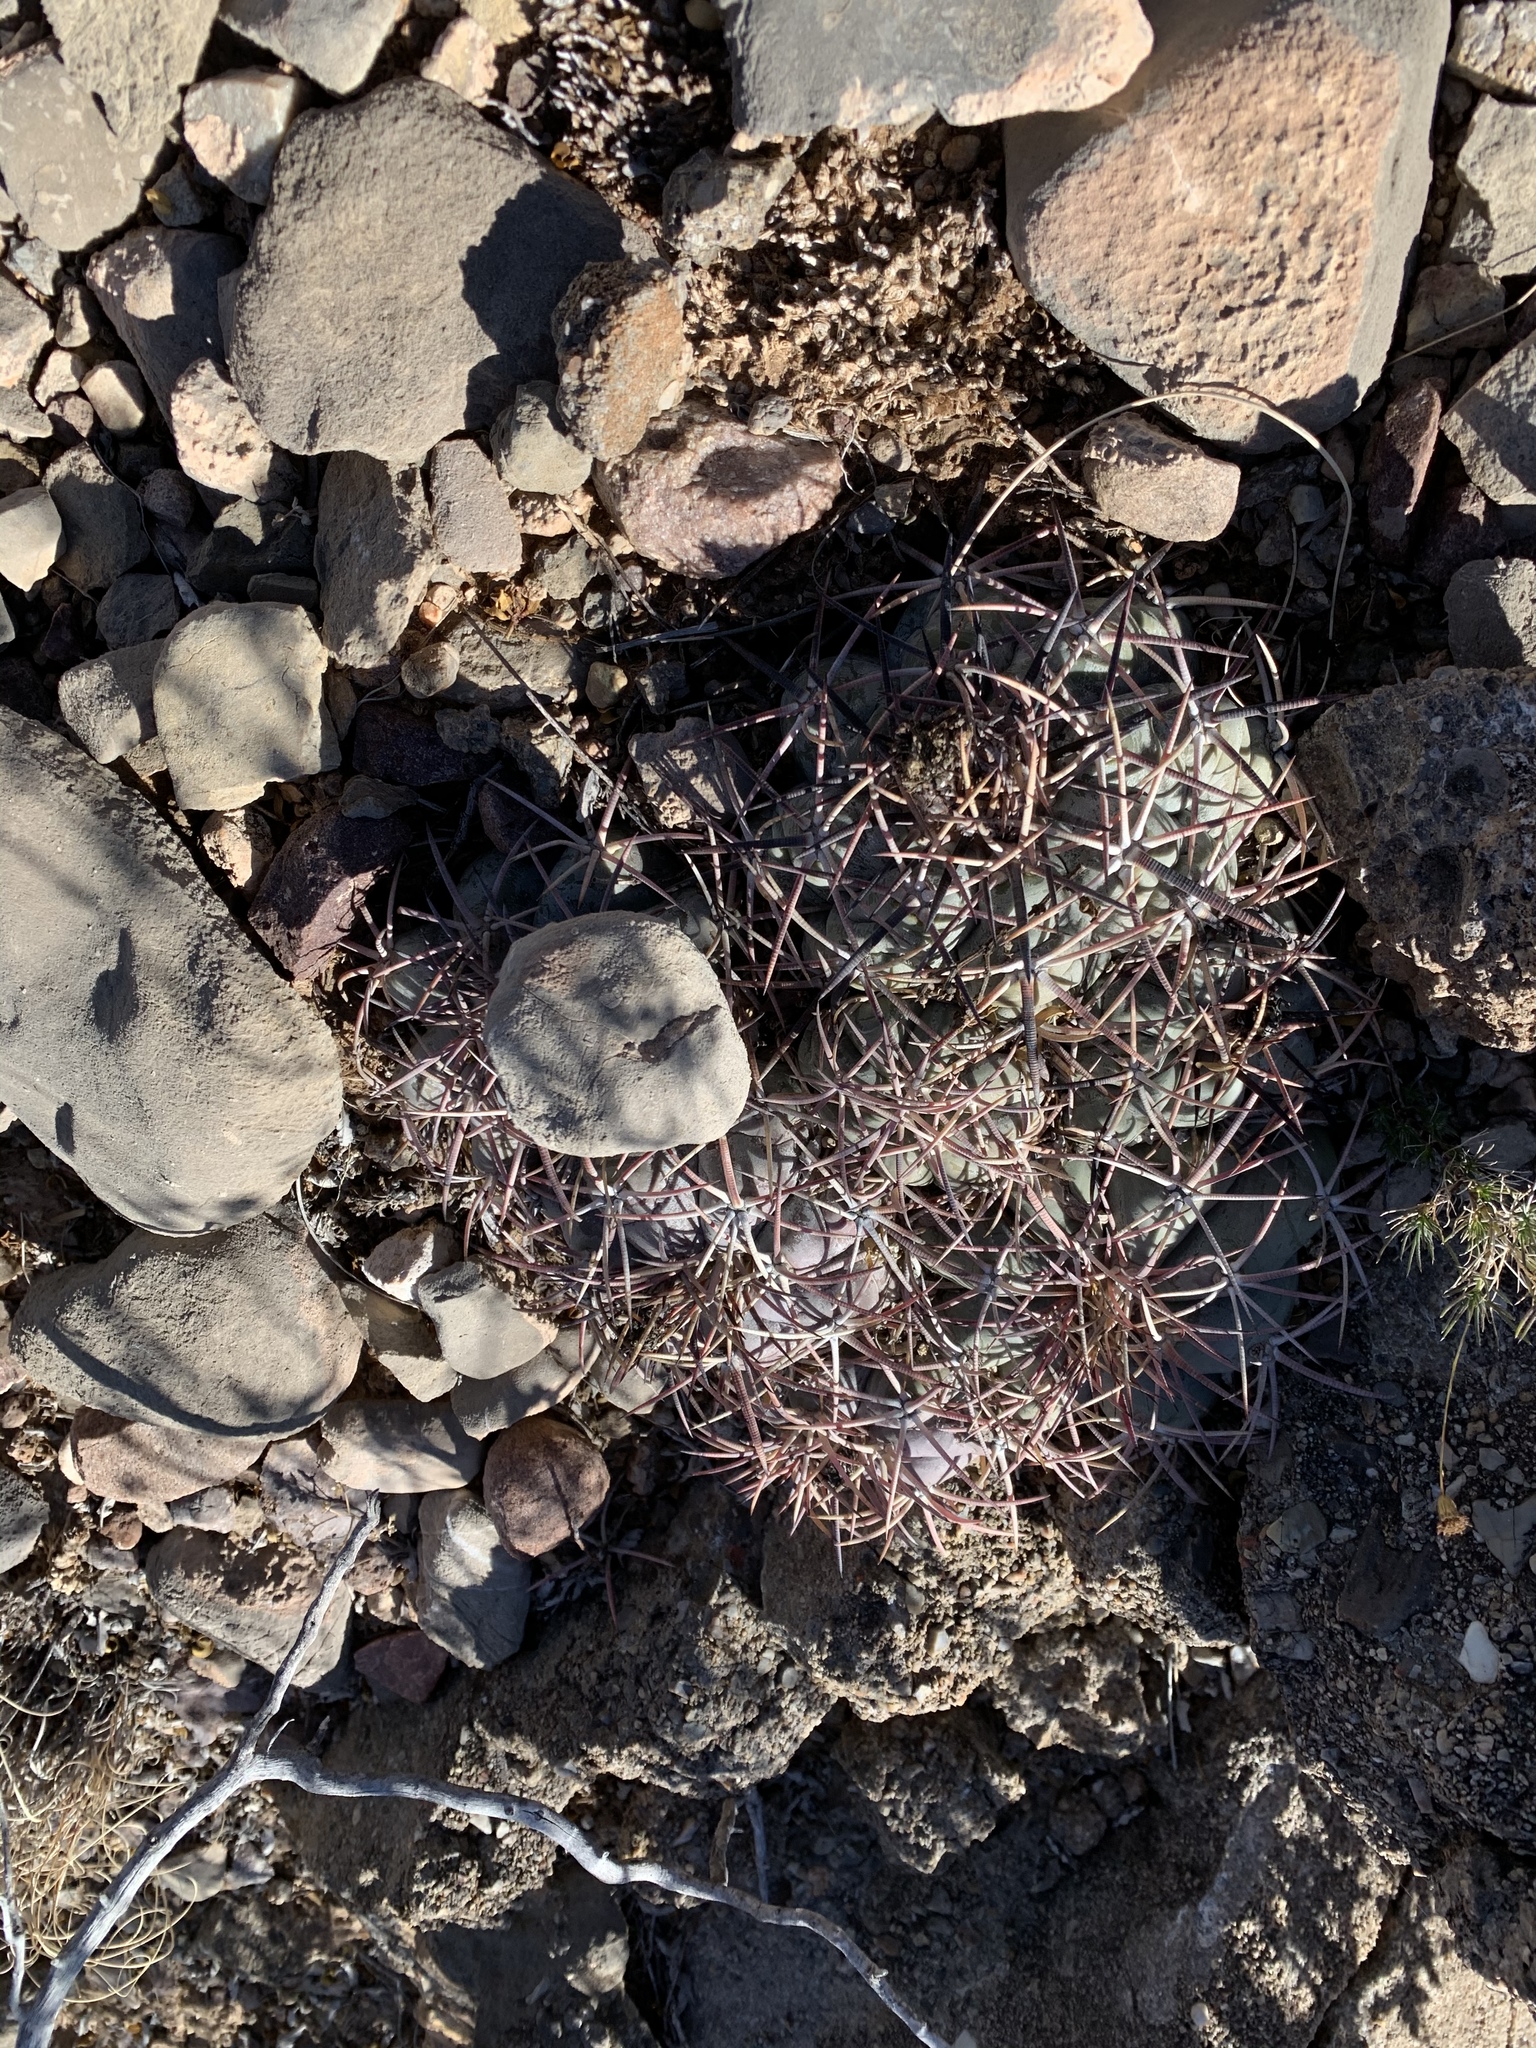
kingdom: Plantae
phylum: Tracheophyta
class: Magnoliopsida
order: Caryophyllales
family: Cactaceae
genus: Echinocactus
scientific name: Echinocactus horizonthalonius
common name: Devilshead
